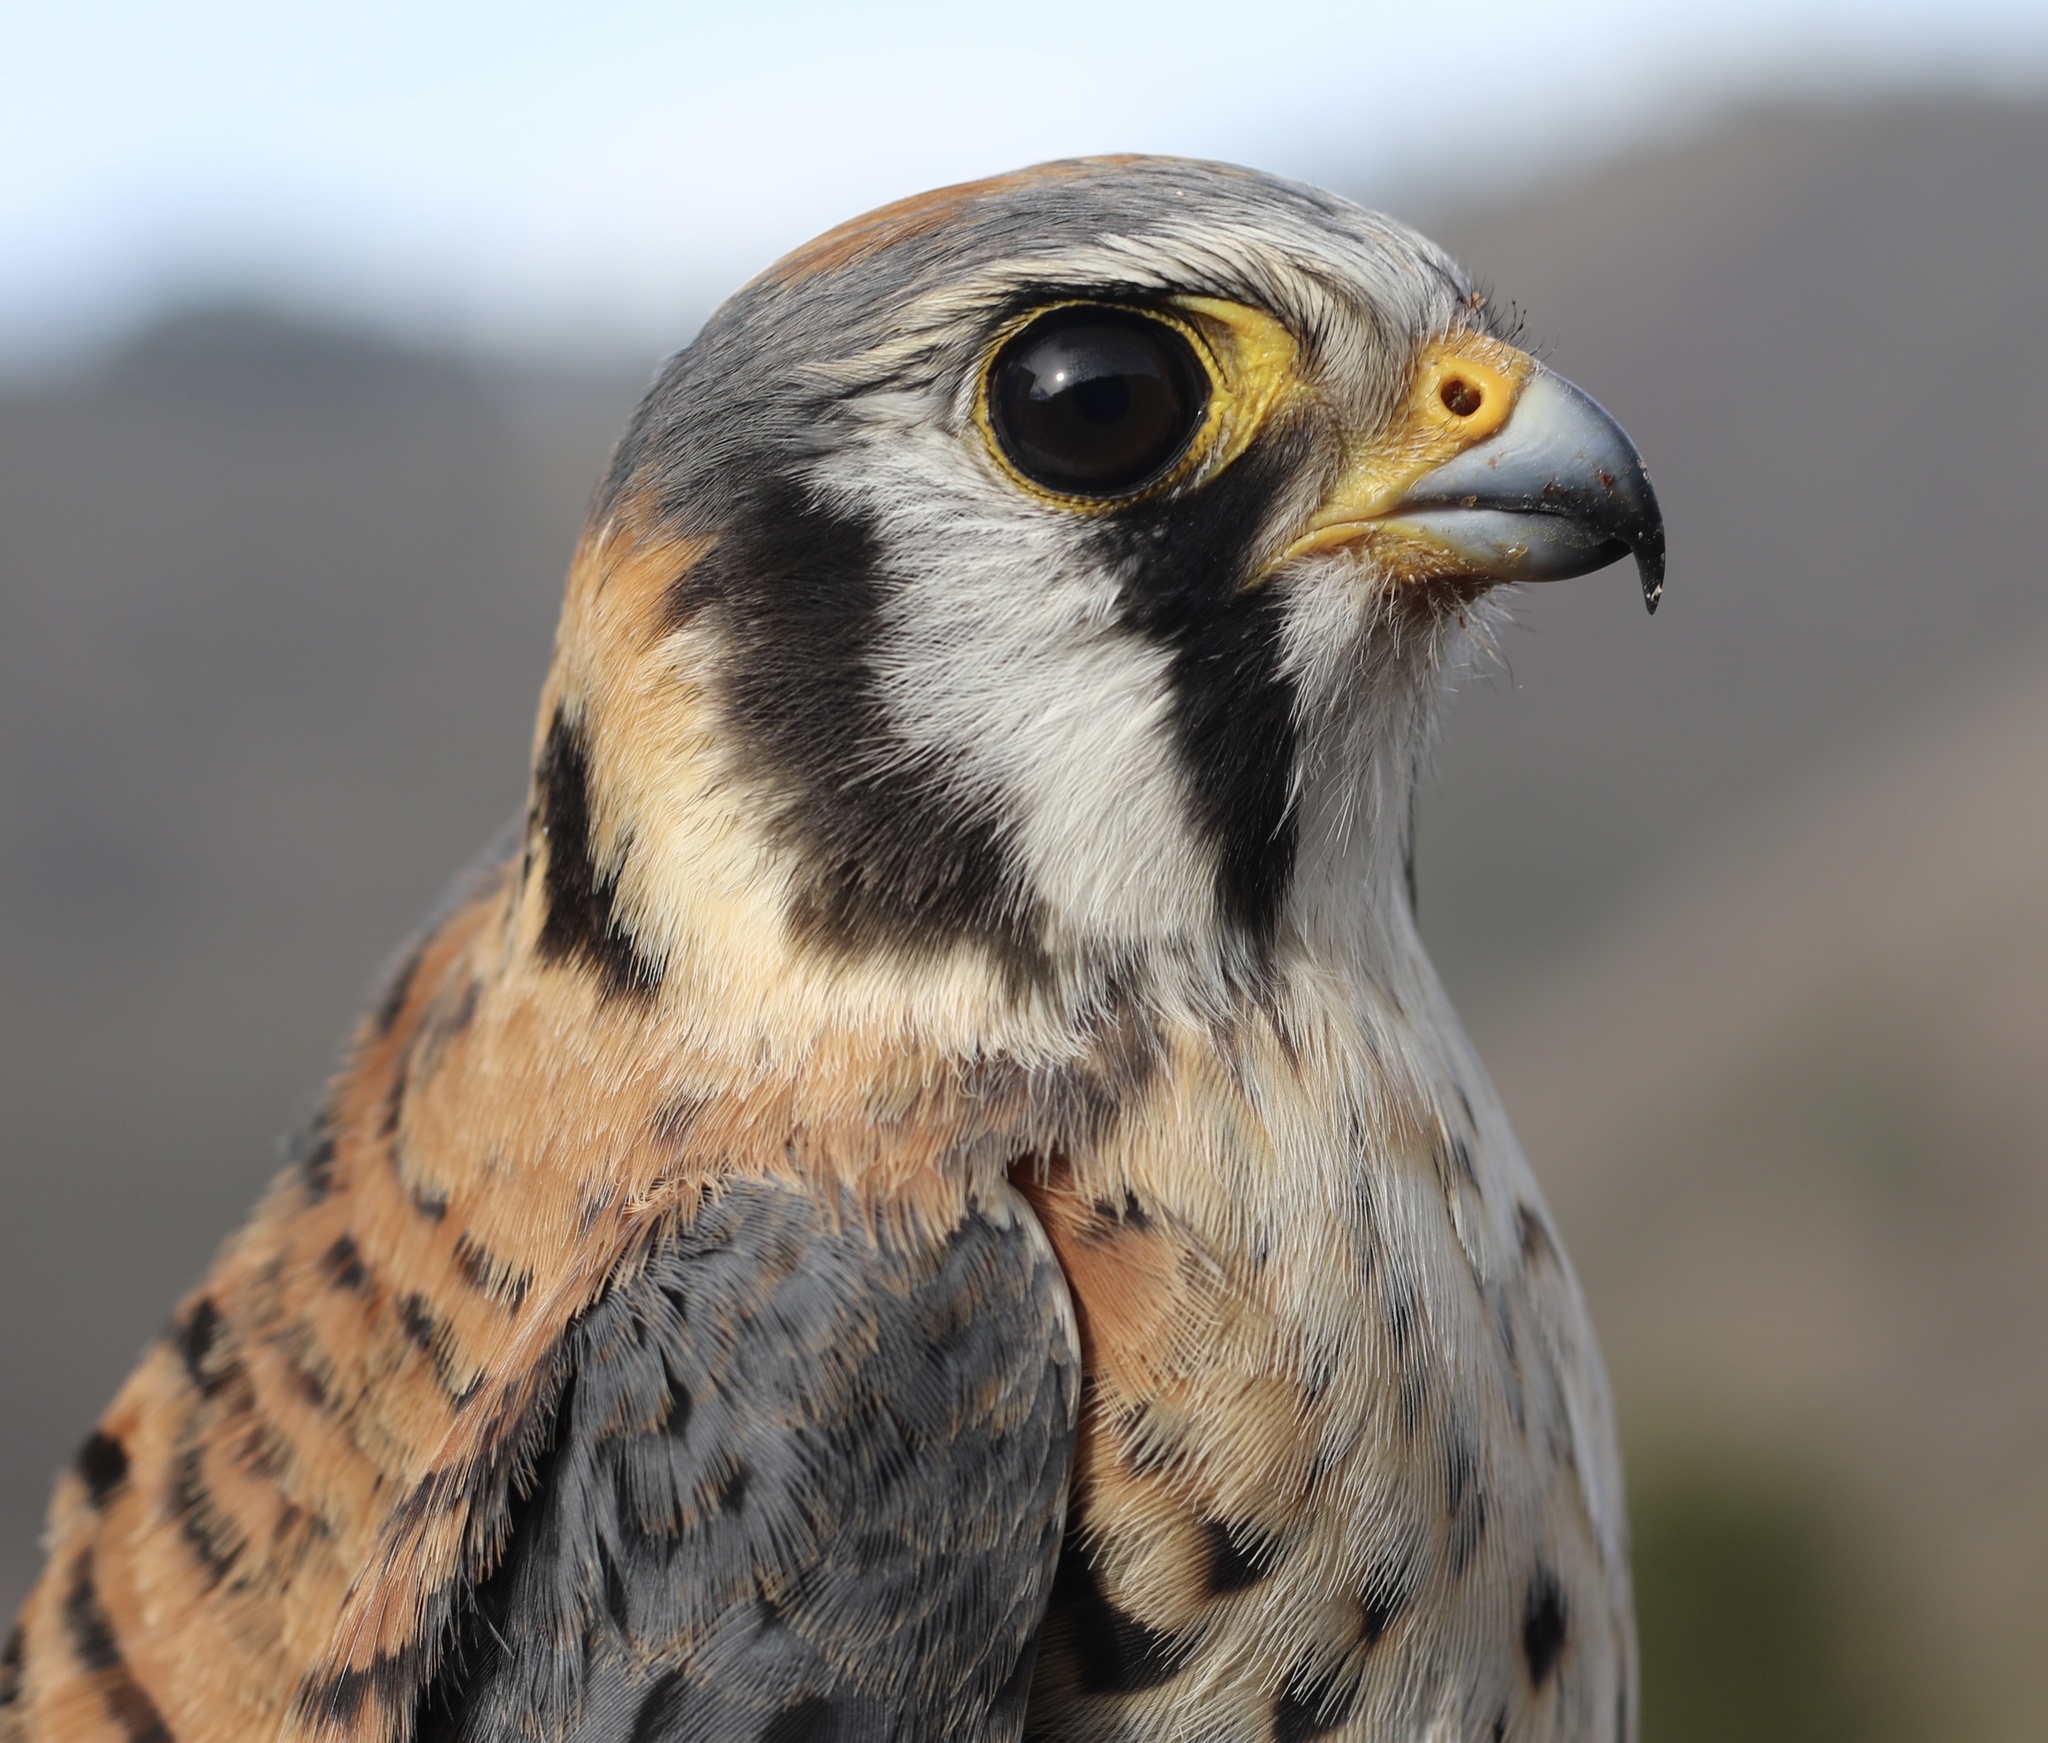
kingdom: Animalia
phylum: Chordata
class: Aves
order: Falconiformes
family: Falconidae
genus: Falco
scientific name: Falco sparverius
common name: American kestrel
